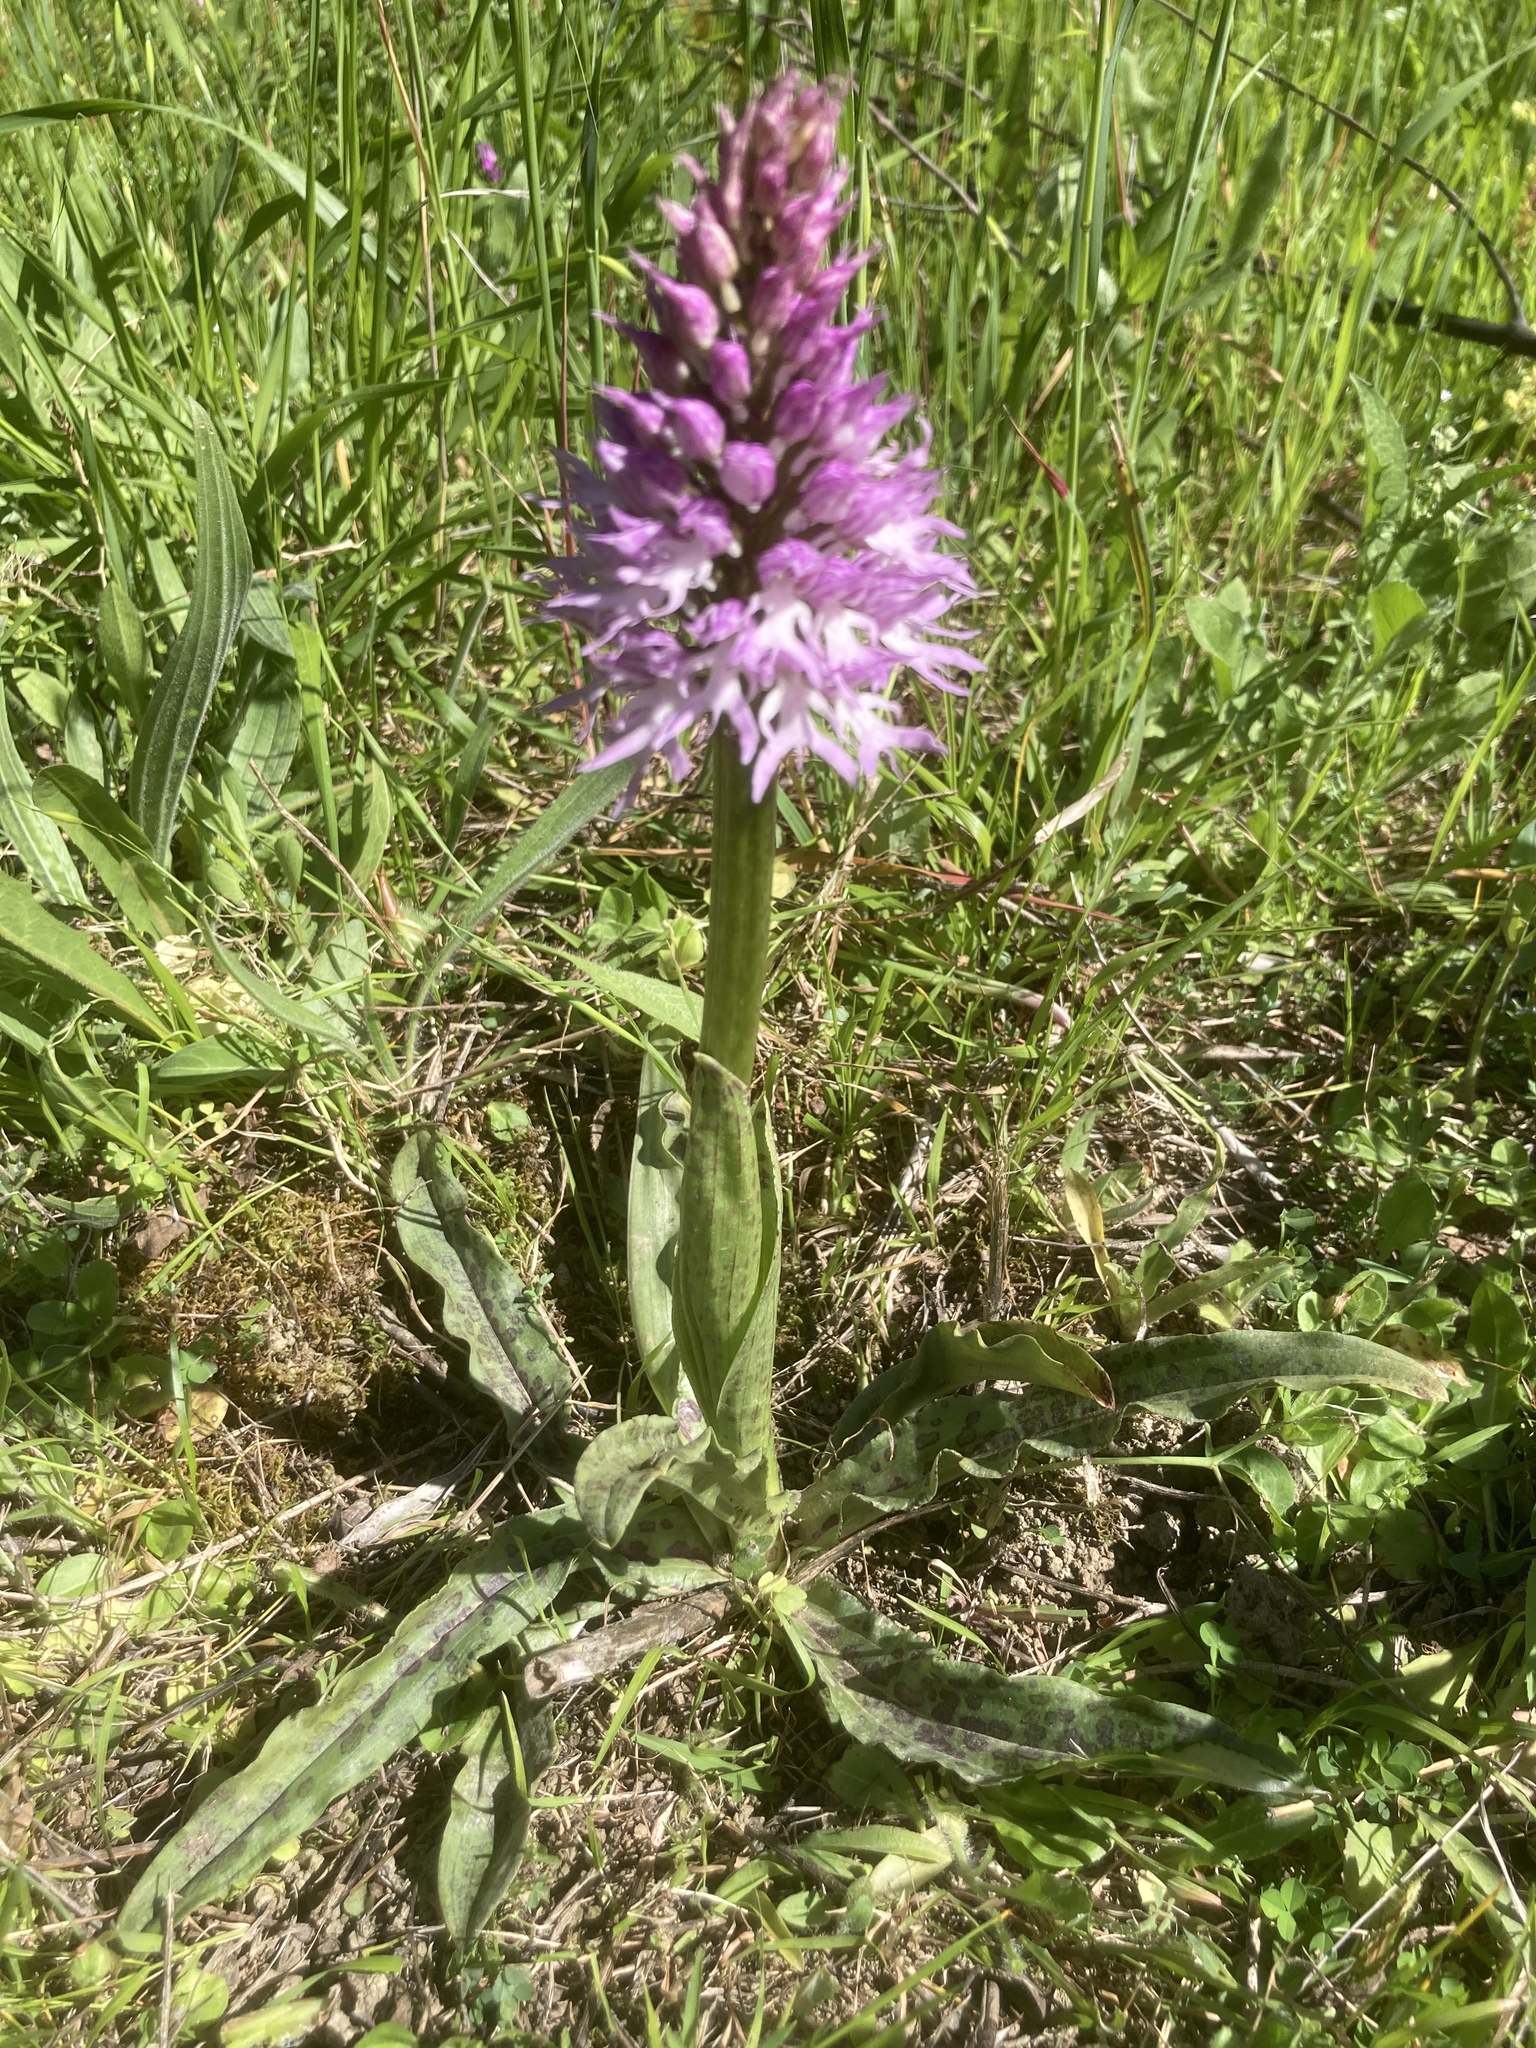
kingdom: Plantae
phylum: Tracheophyta
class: Liliopsida
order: Asparagales
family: Orchidaceae
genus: Orchis
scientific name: Orchis italica
